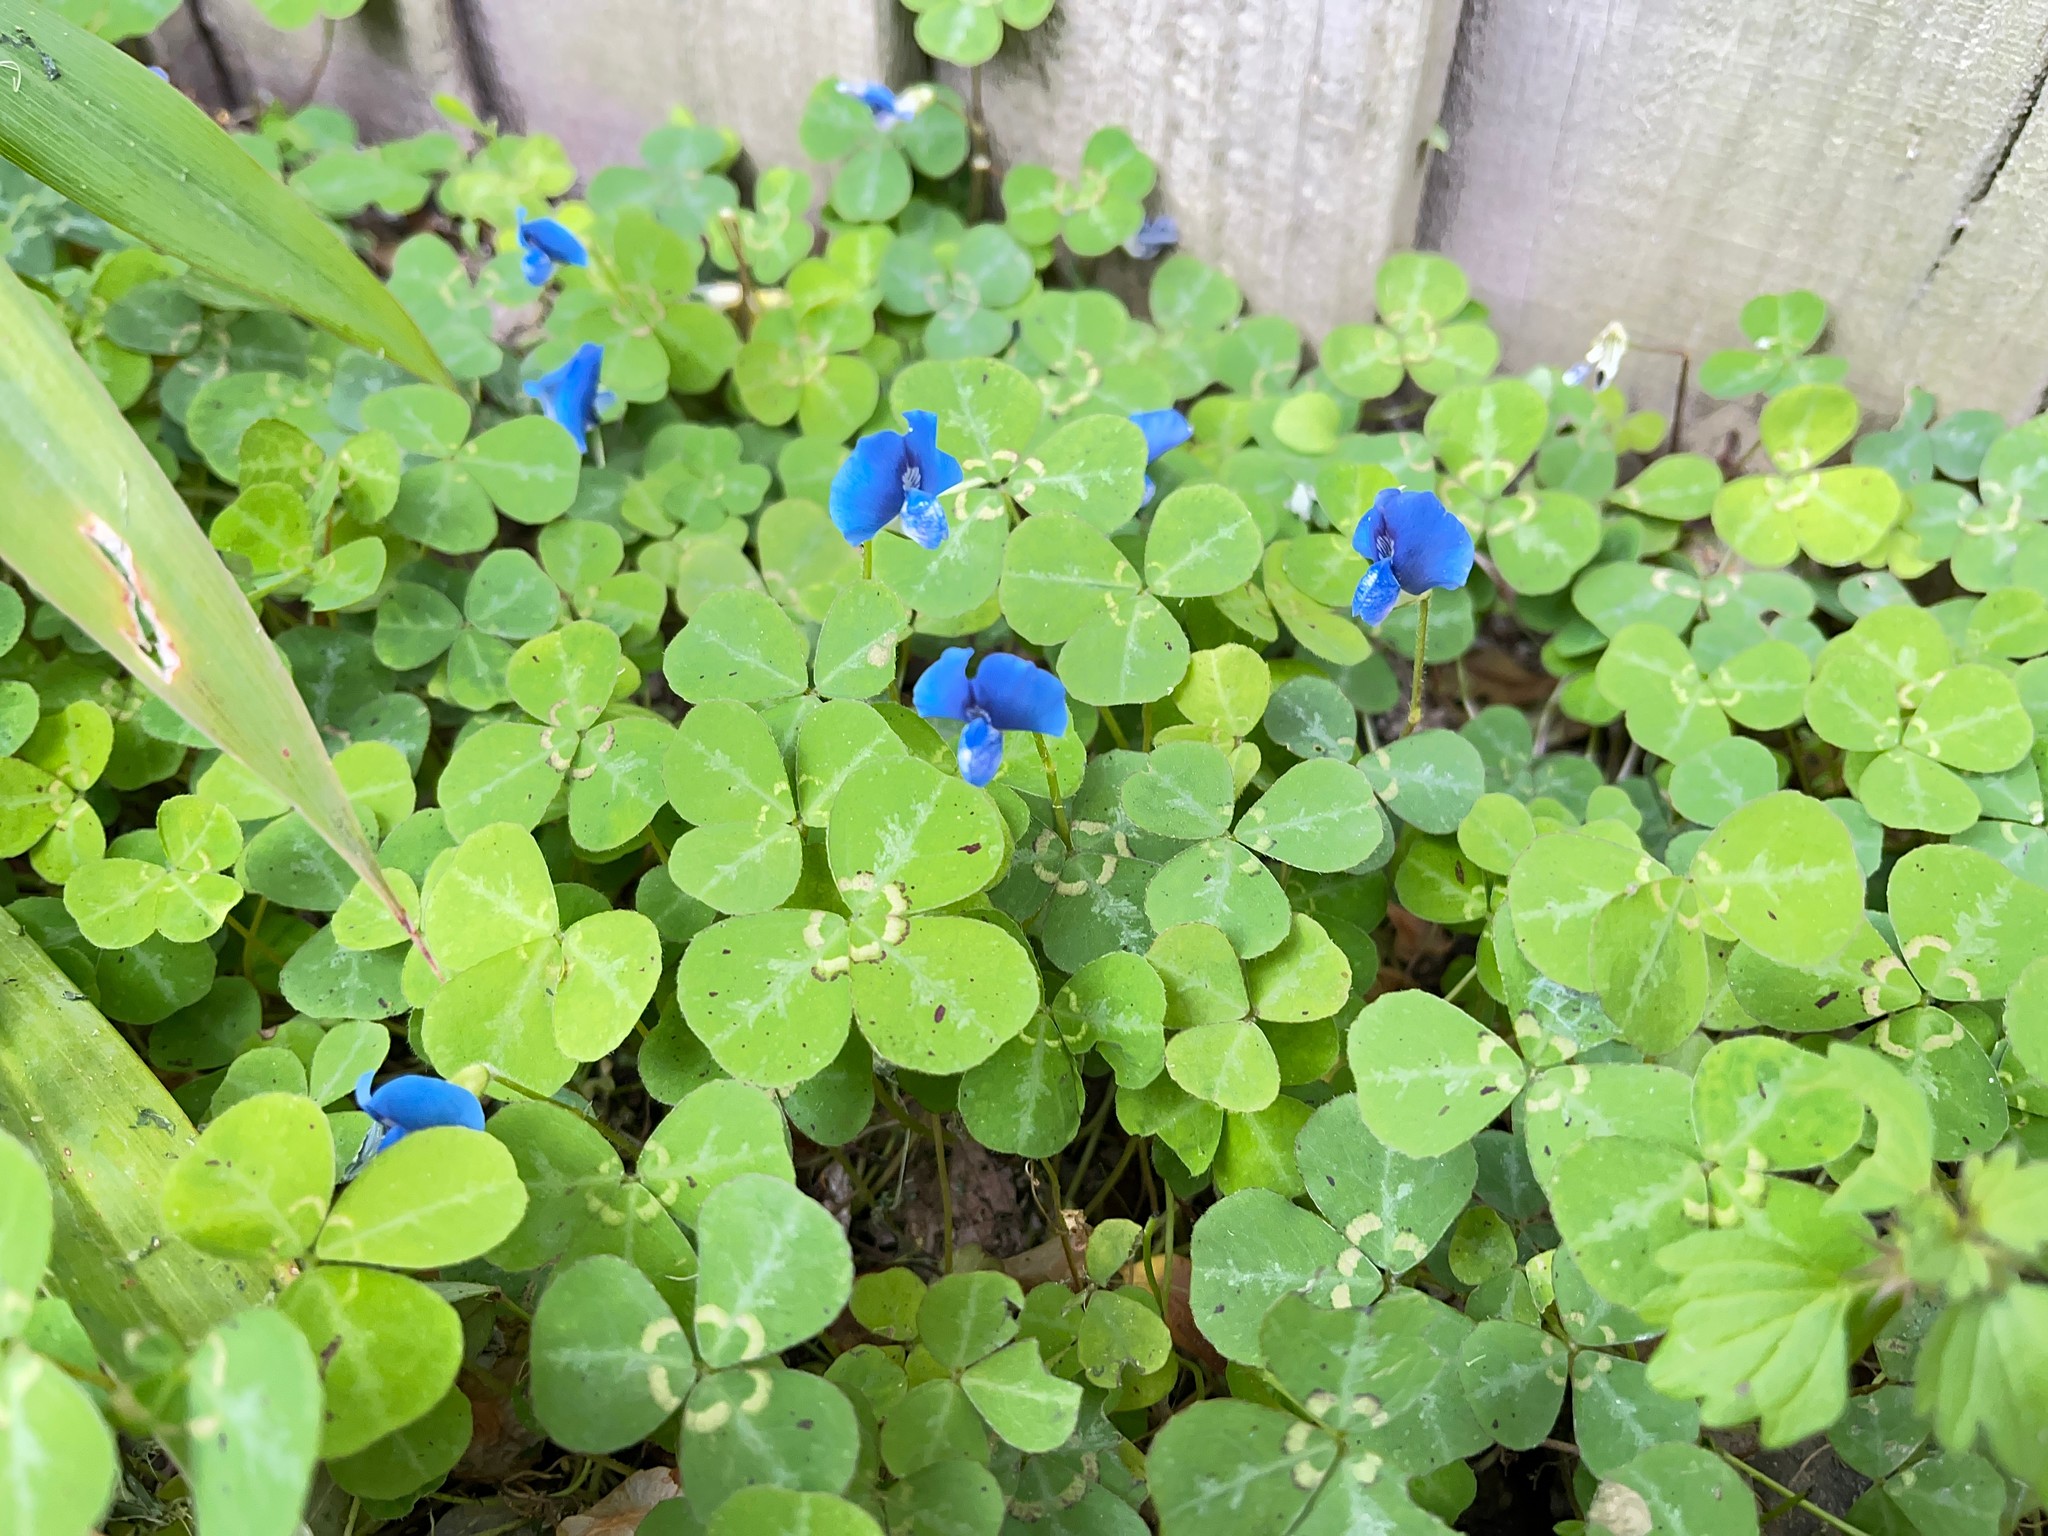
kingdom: Plantae
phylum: Tracheophyta
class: Magnoliopsida
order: Fabales
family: Fabaceae
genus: Parochetus
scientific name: Parochetus communis
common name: Blue oxalis
